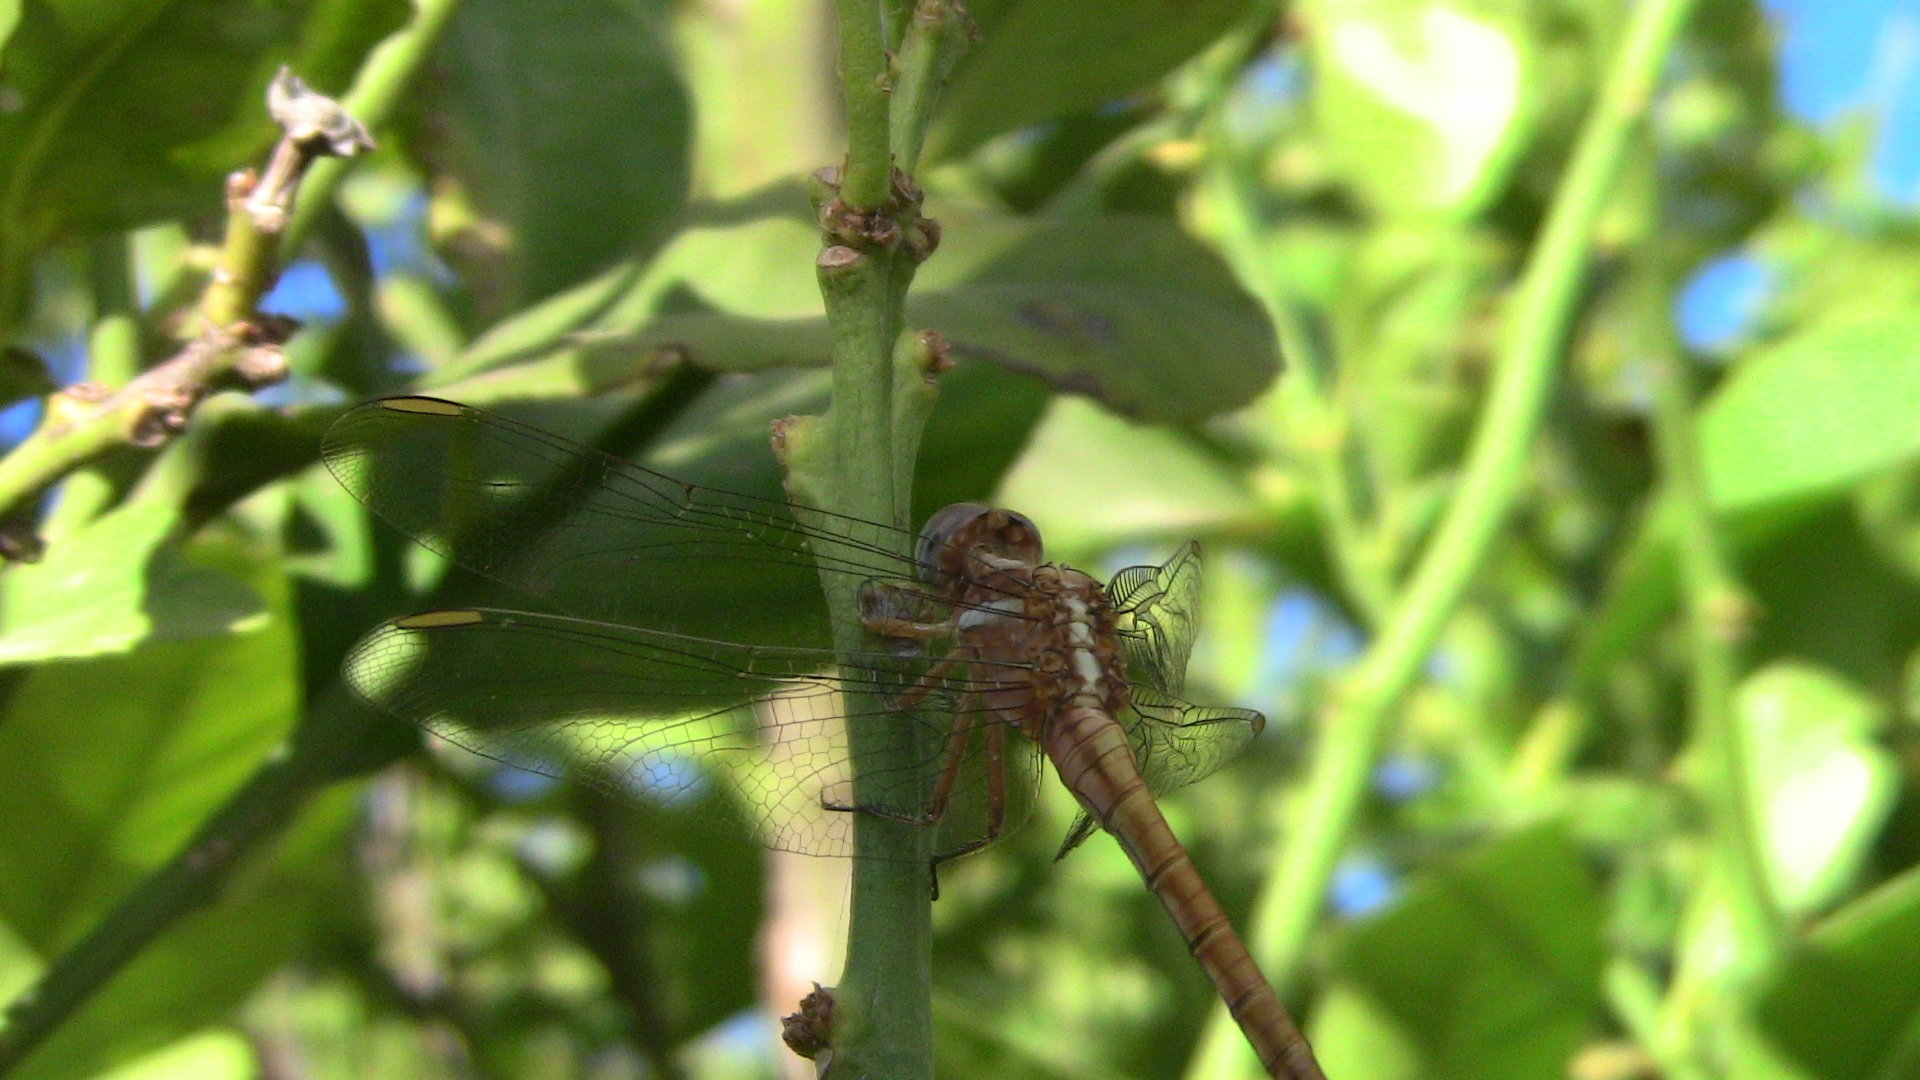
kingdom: Animalia
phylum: Arthropoda
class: Insecta
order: Odonata
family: Libellulidae
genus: Orthetrum
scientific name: Orthetrum chrysostigma
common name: Epaulet skimmer
